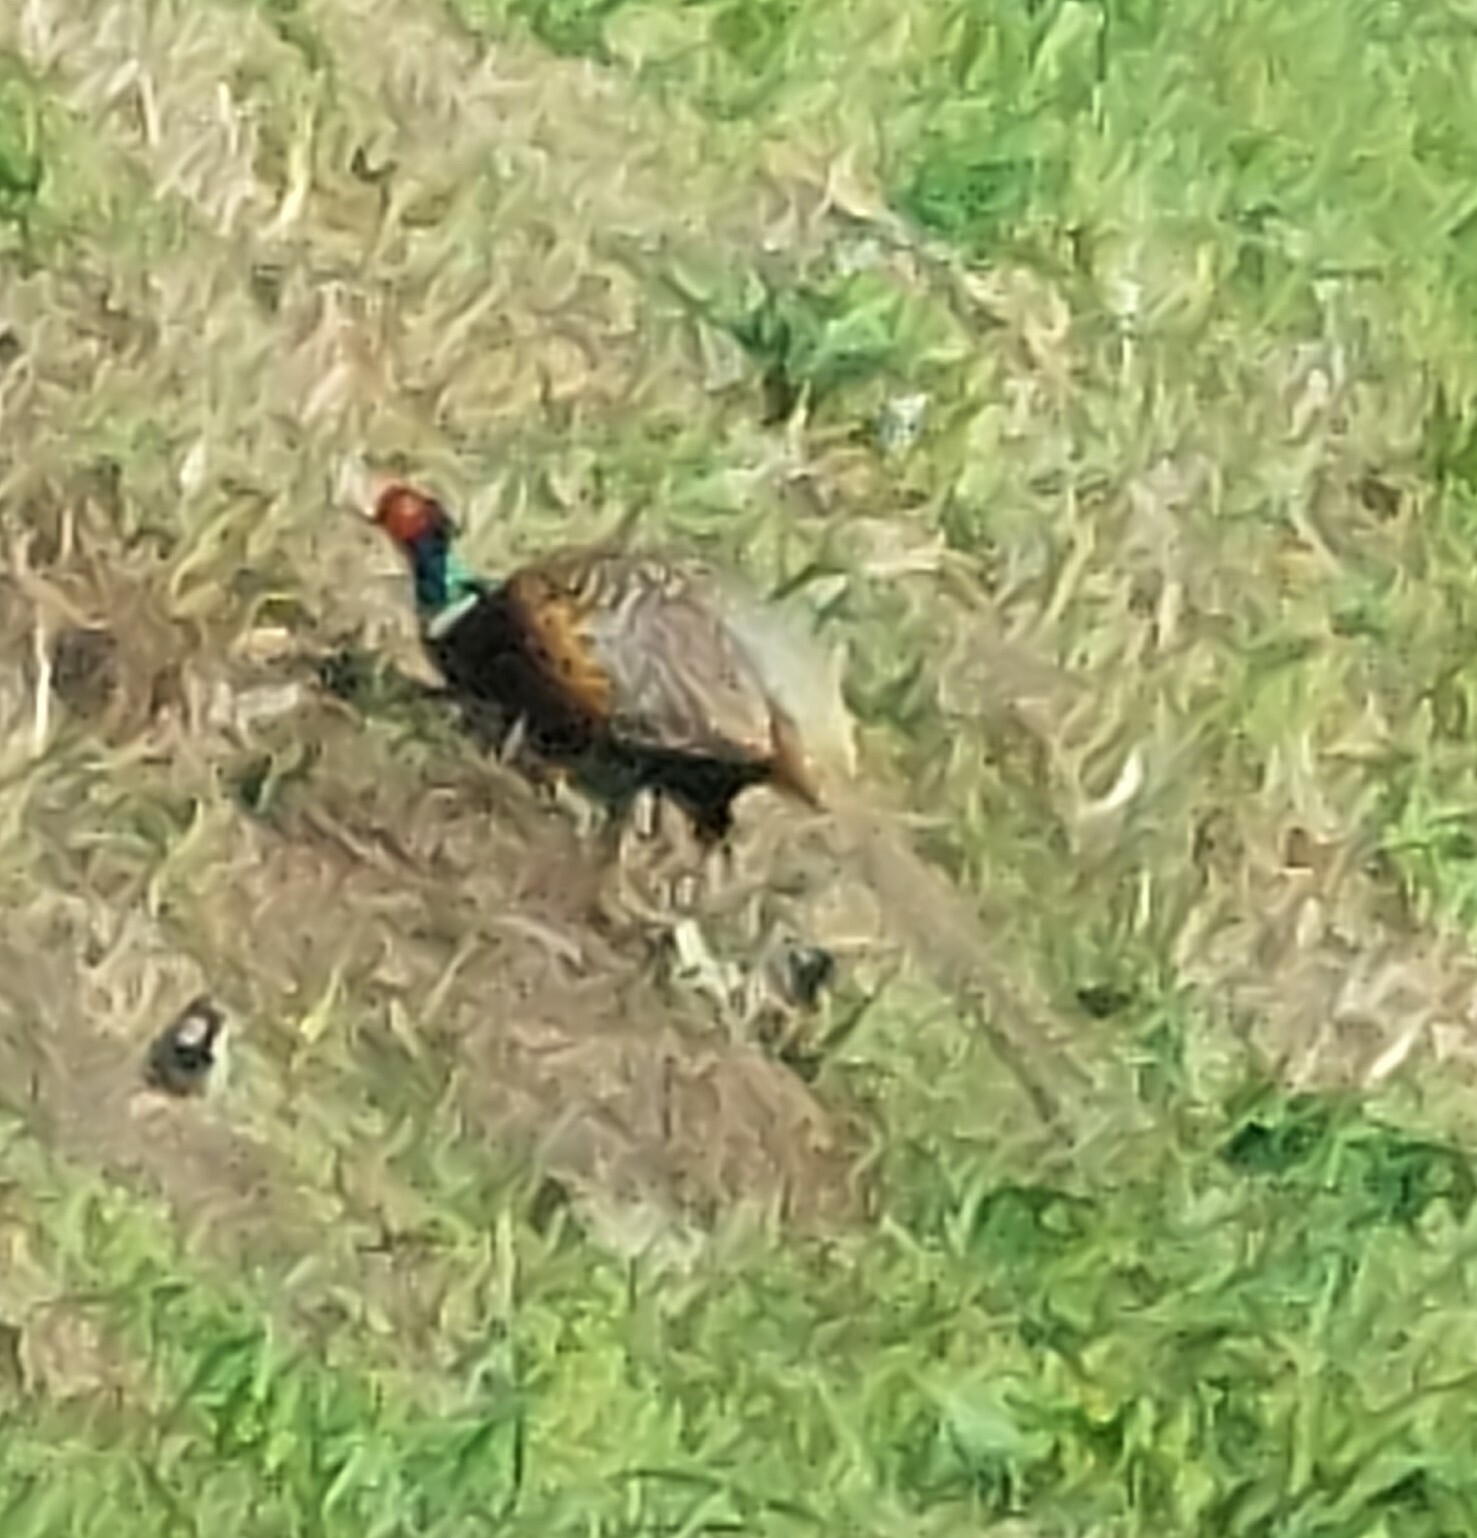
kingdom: Animalia
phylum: Chordata
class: Aves
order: Galliformes
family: Phasianidae
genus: Phasianus
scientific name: Phasianus colchicus
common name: Common pheasant
